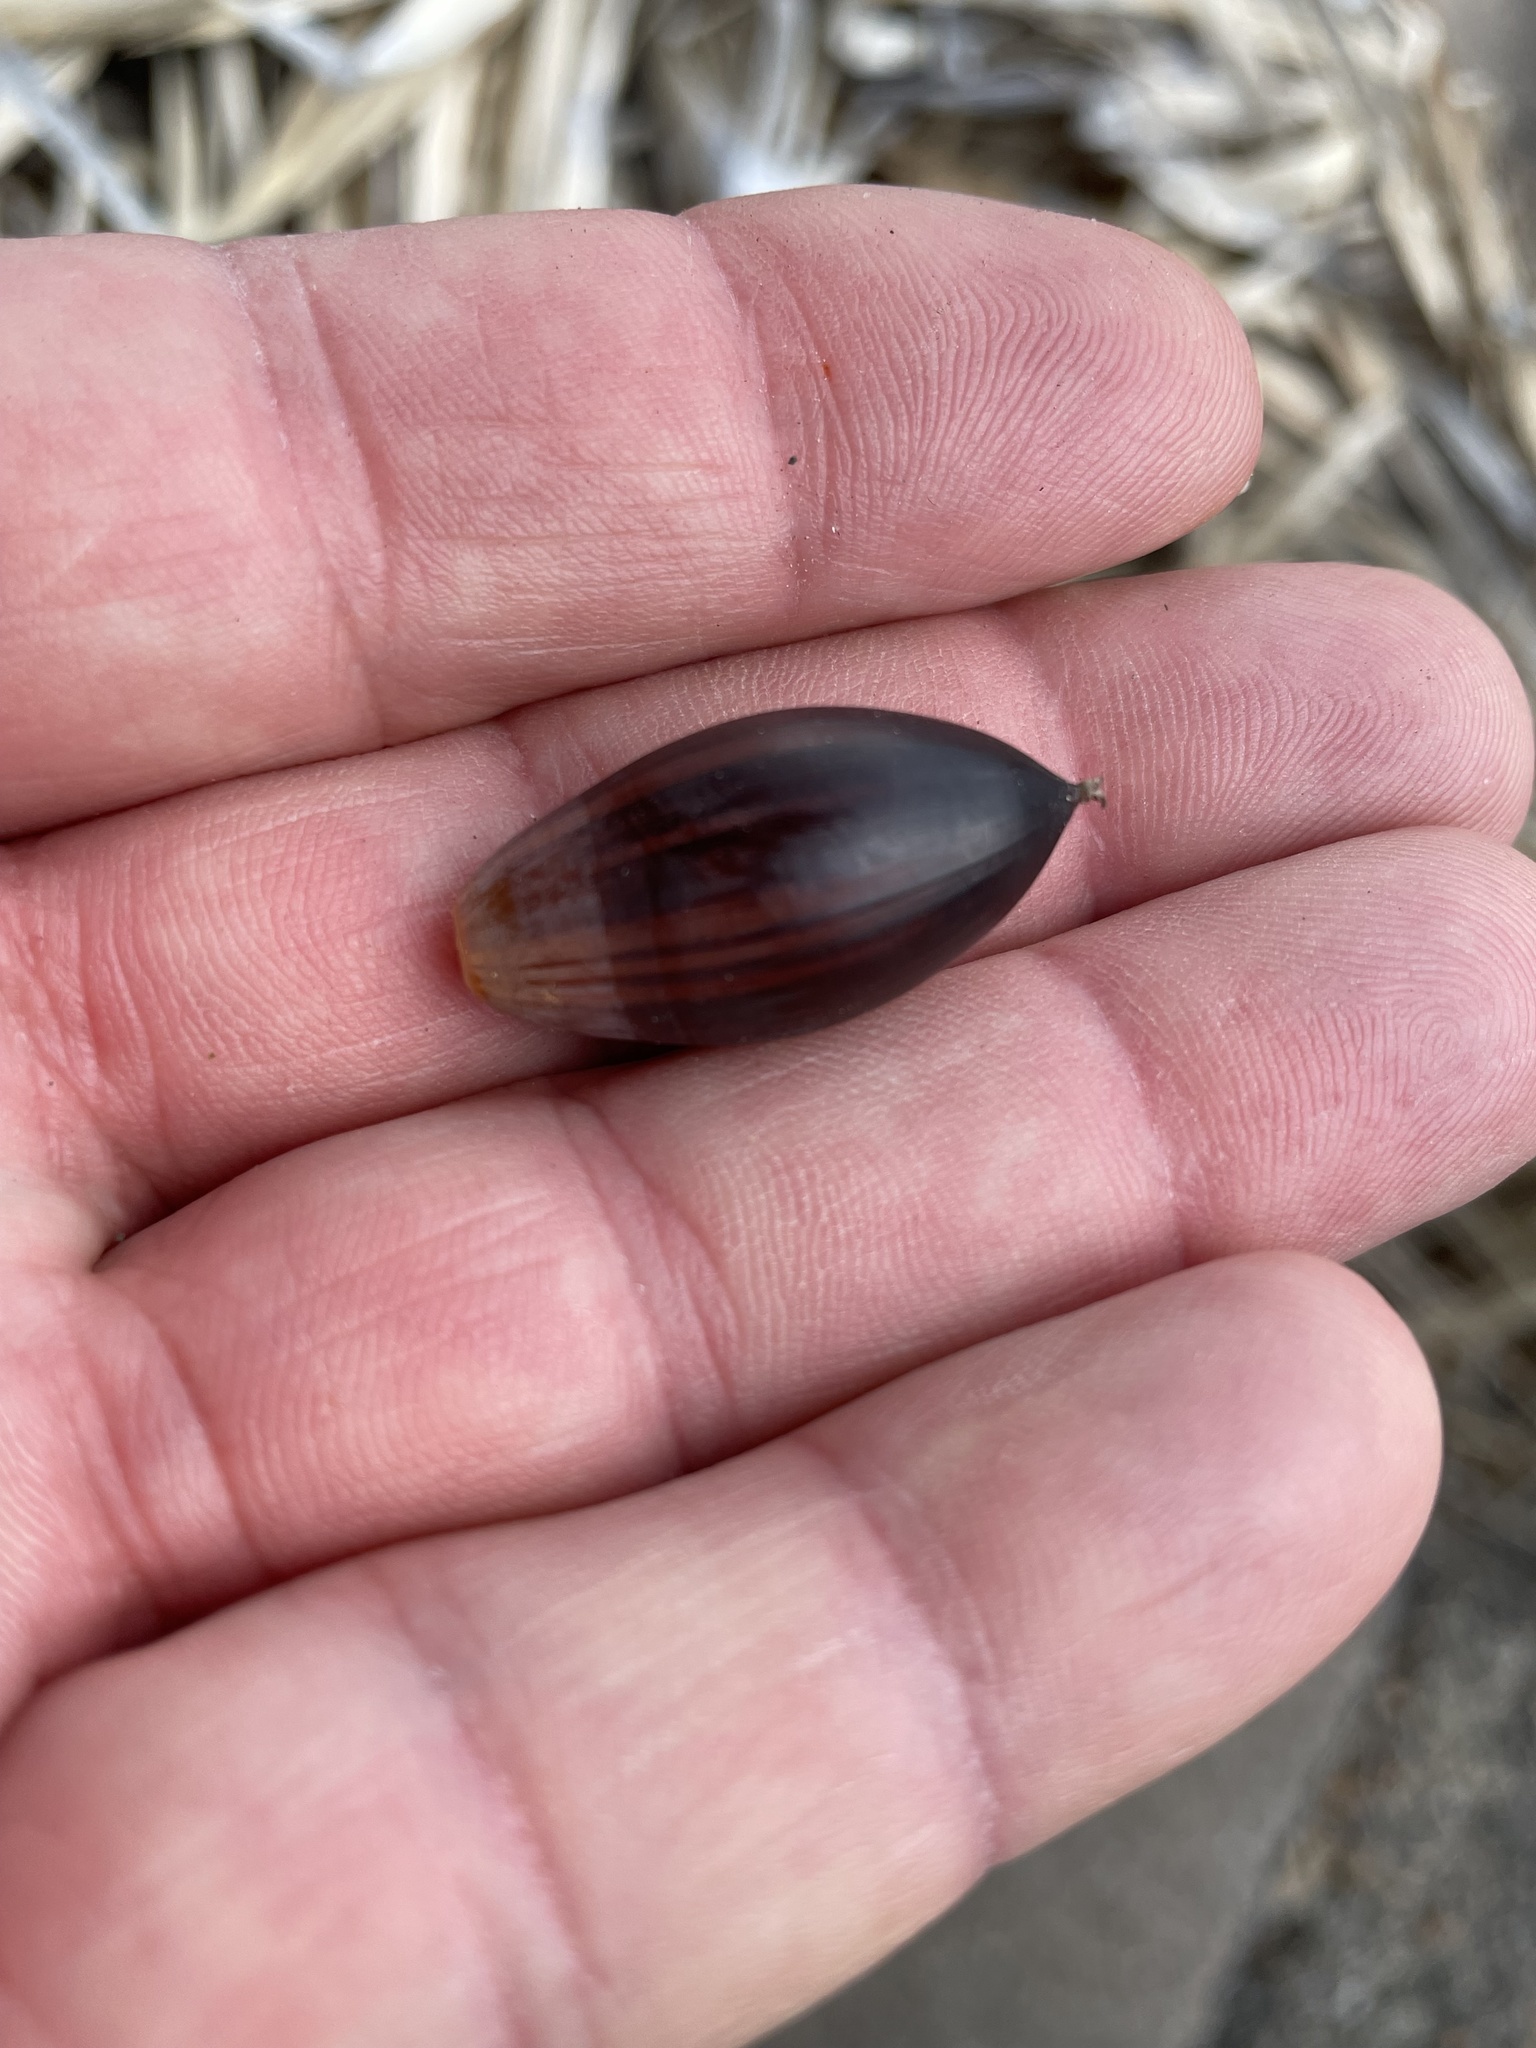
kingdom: Plantae
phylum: Tracheophyta
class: Magnoliopsida
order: Fagales
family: Fagaceae
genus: Quercus
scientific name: Quercus fusiformis
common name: Texas live oak
